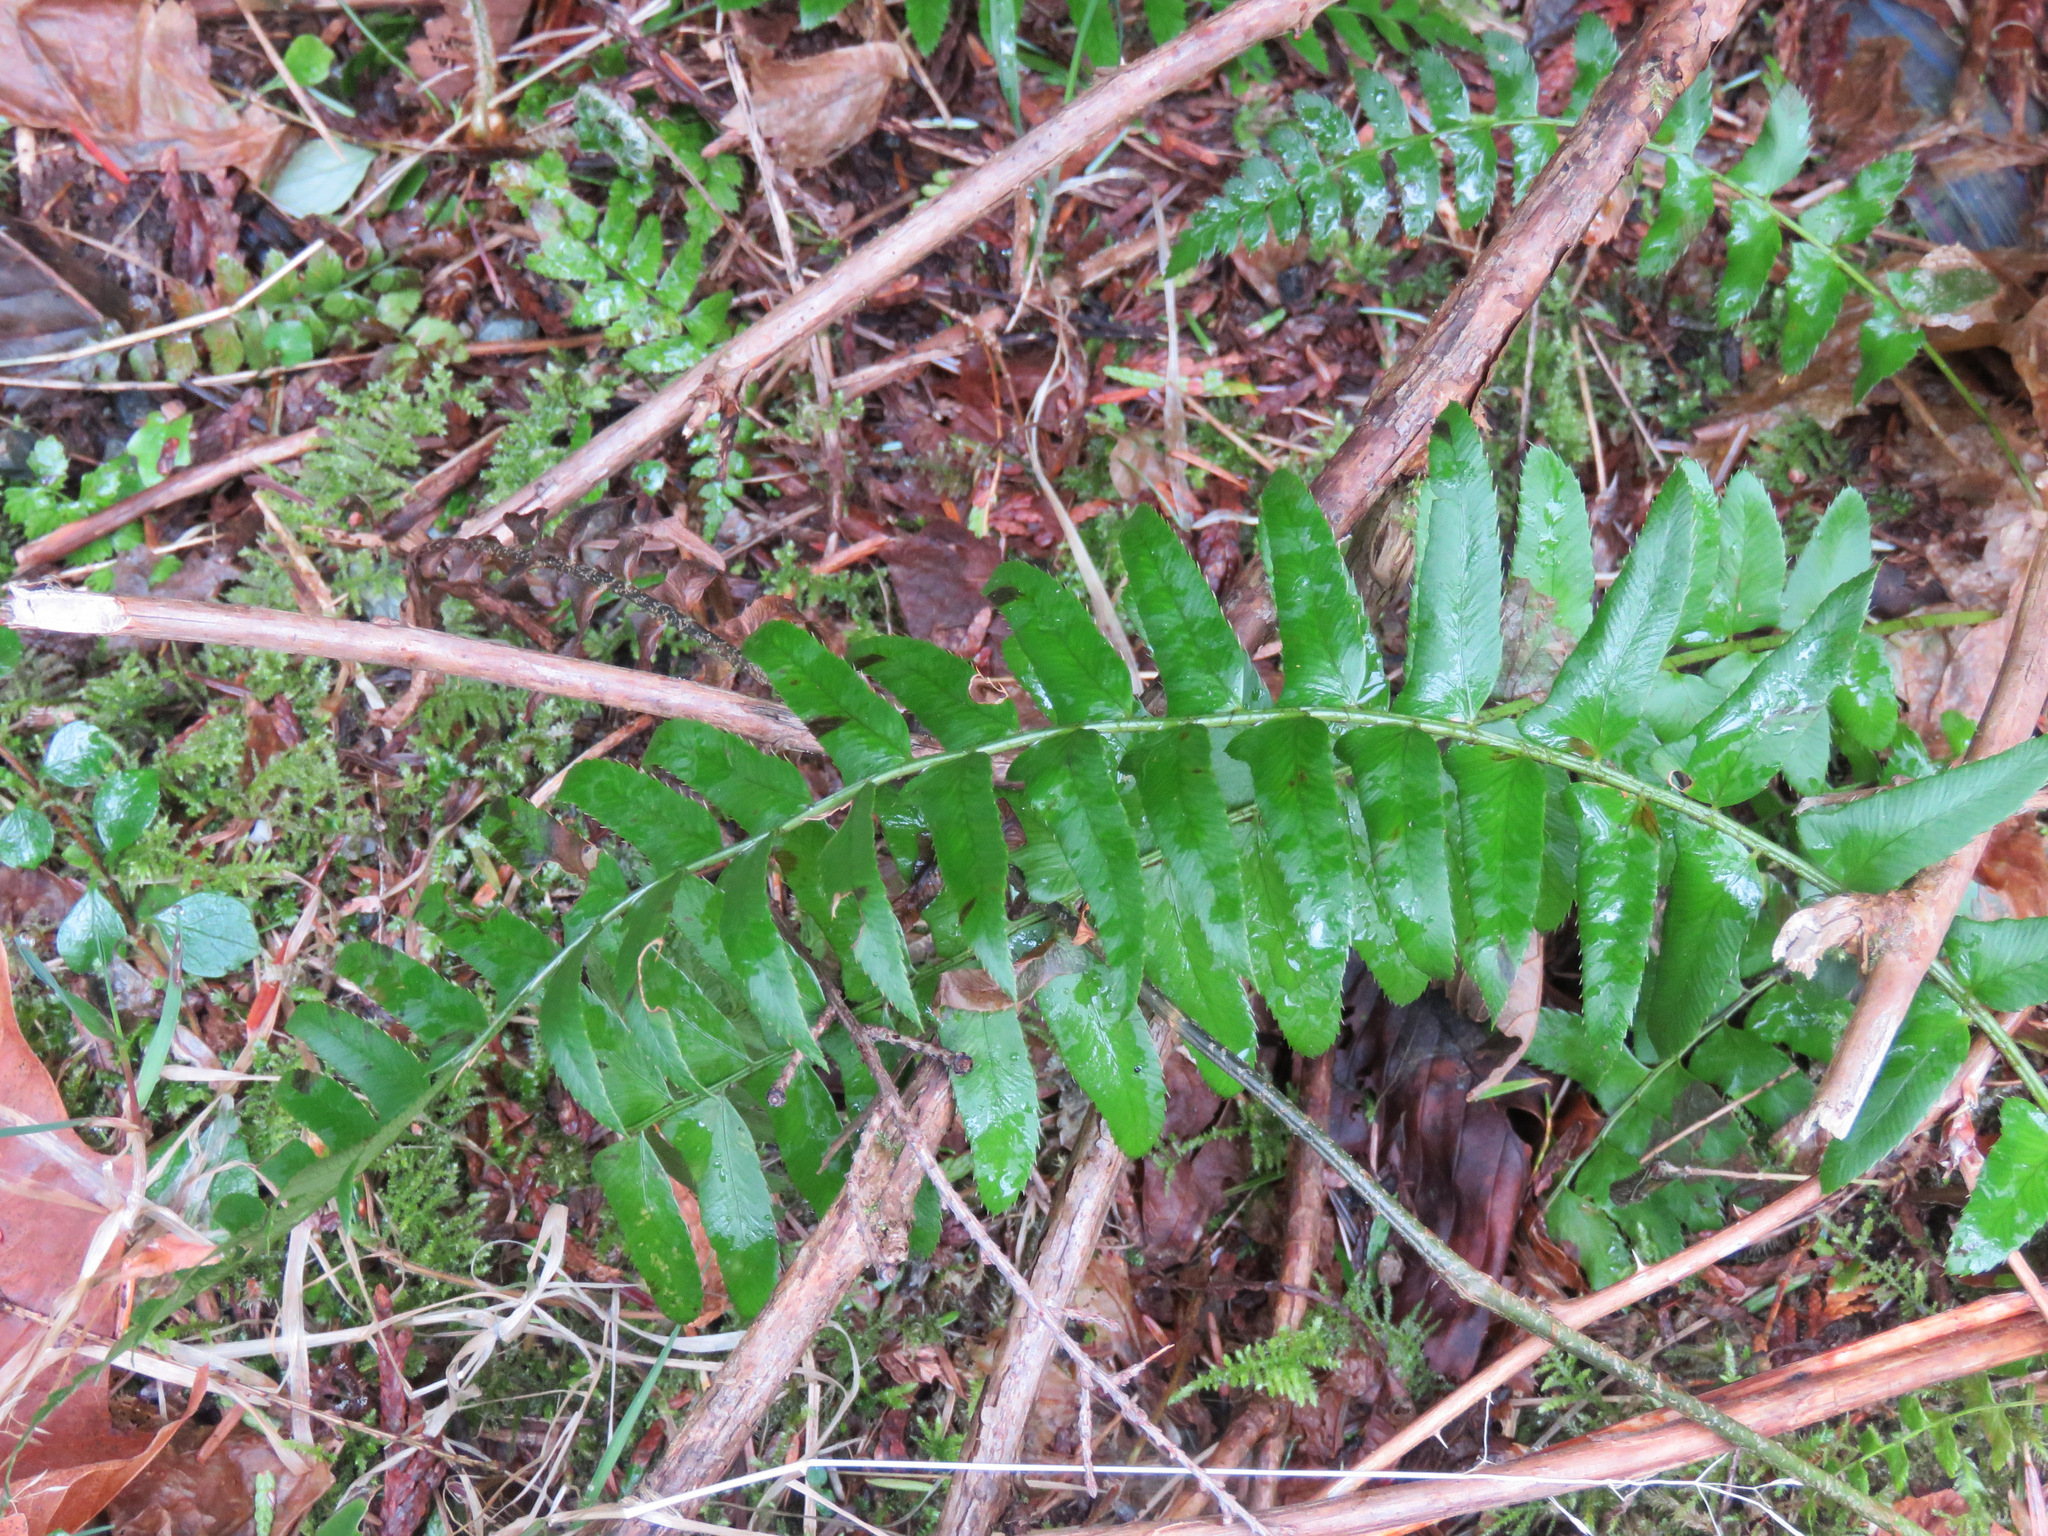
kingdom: Plantae
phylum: Tracheophyta
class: Polypodiopsida
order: Polypodiales
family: Dryopteridaceae
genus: Polystichum
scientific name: Polystichum munitum
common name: Western sword-fern
